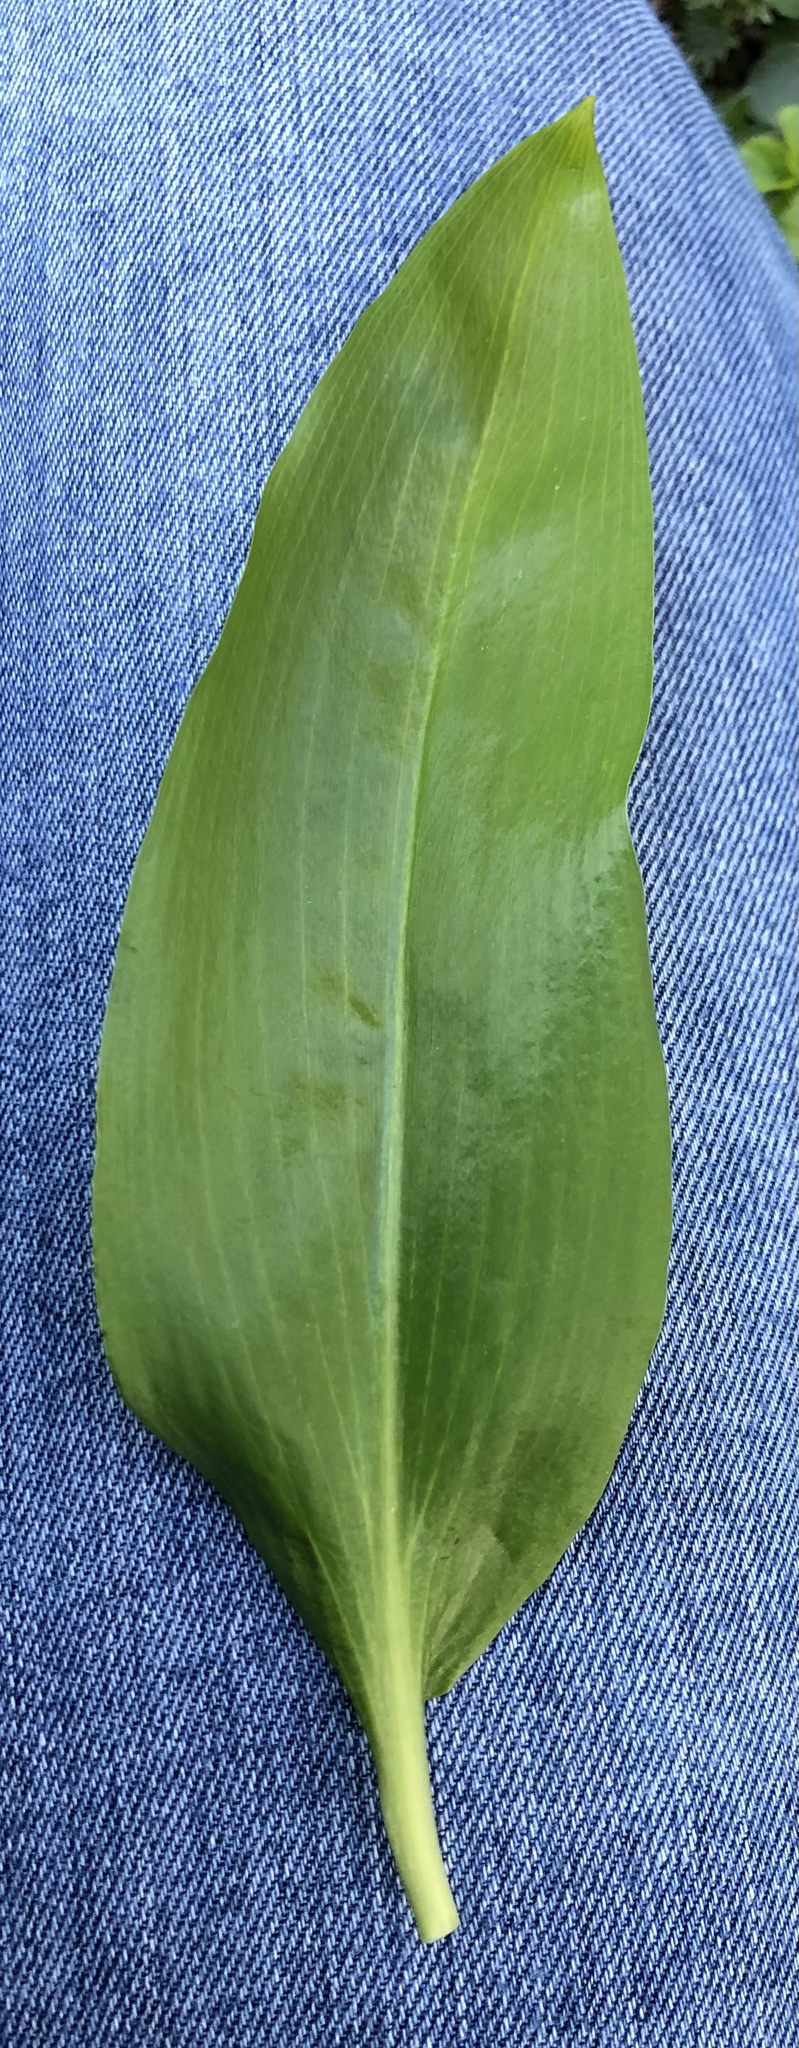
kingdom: Plantae
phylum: Tracheophyta
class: Liliopsida
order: Asparagales
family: Amaryllidaceae
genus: Allium
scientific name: Allium ursinum
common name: Ramsons
